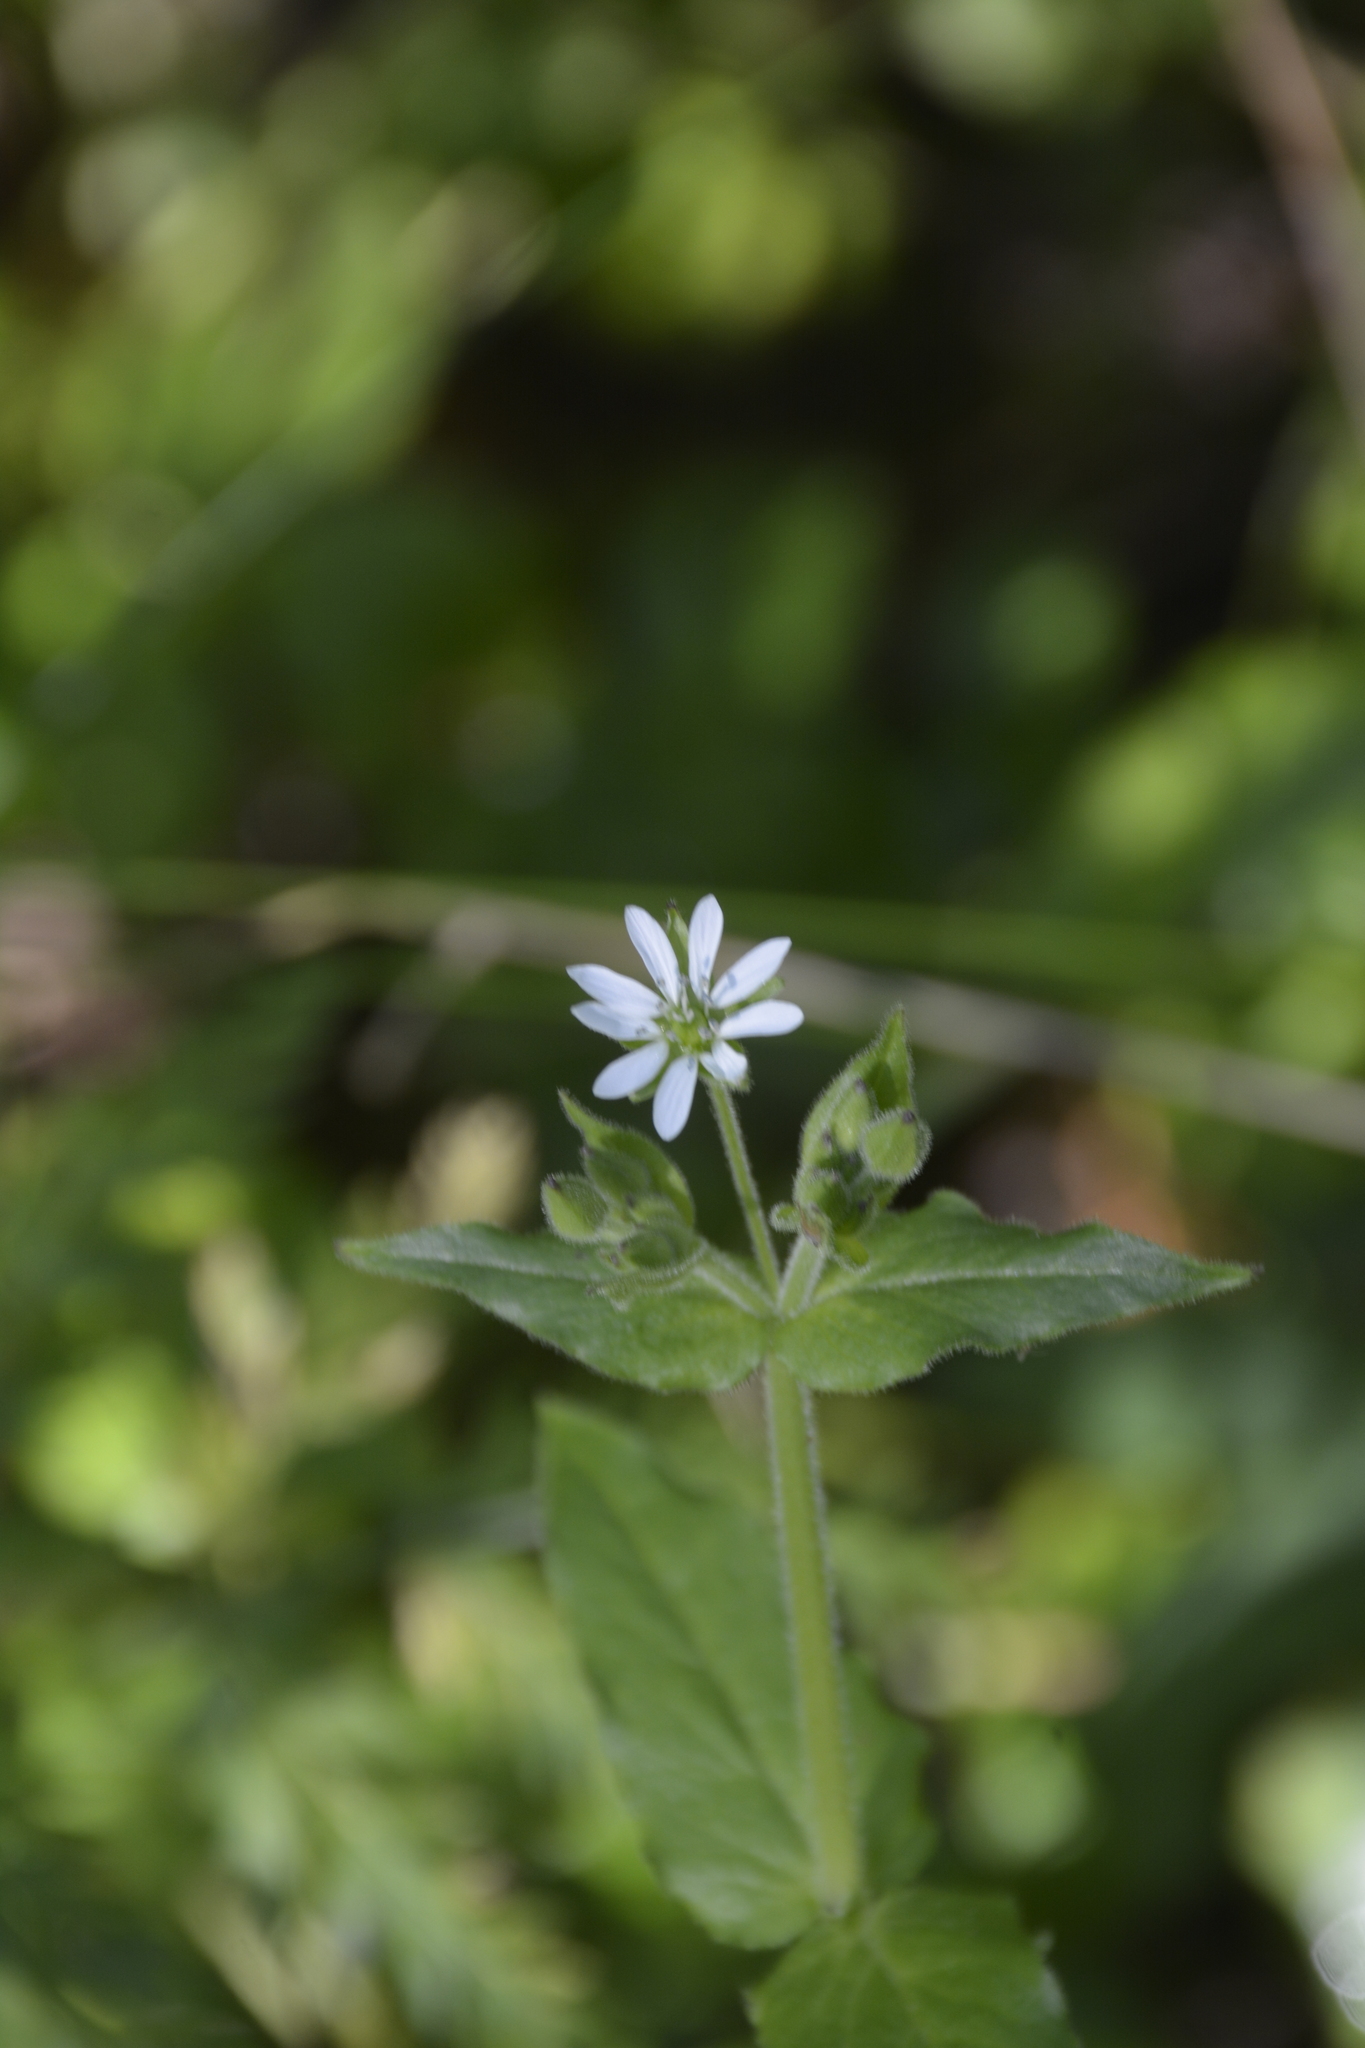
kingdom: Plantae
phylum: Tracheophyta
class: Magnoliopsida
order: Caryophyllales
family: Caryophyllaceae
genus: Stellaria
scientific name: Stellaria aquatica
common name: Water chickweed
